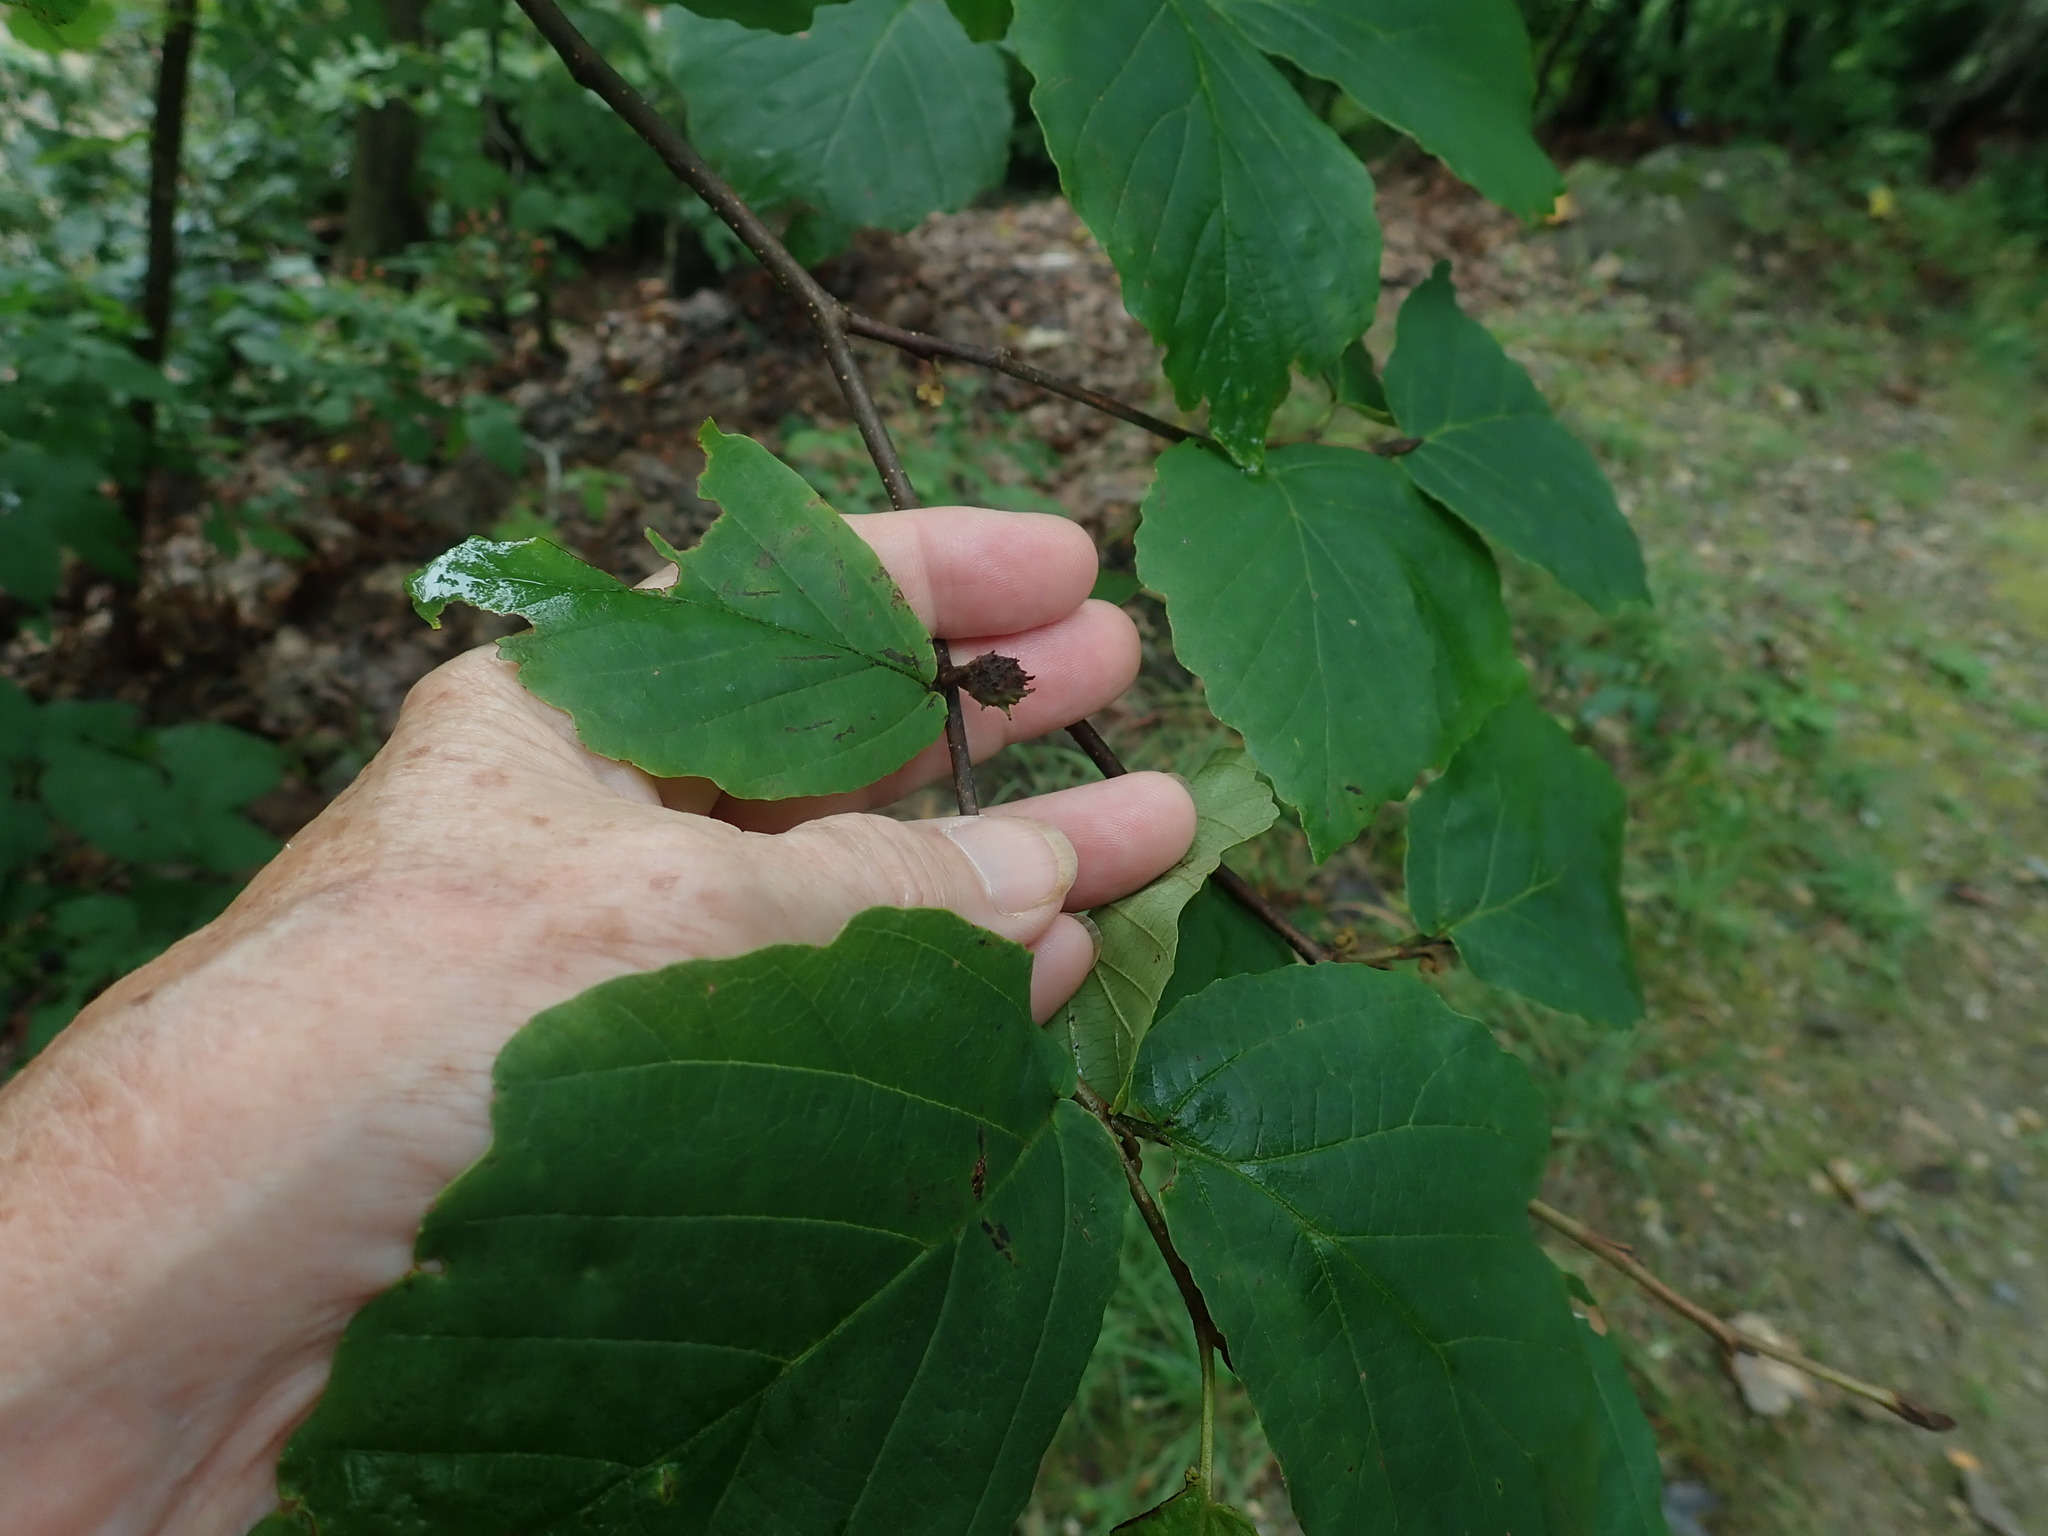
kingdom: Animalia
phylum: Arthropoda
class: Insecta
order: Hemiptera
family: Aphididae
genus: Hamamelistes
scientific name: Hamamelistes spinosus
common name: Witch hazel gall aphid
